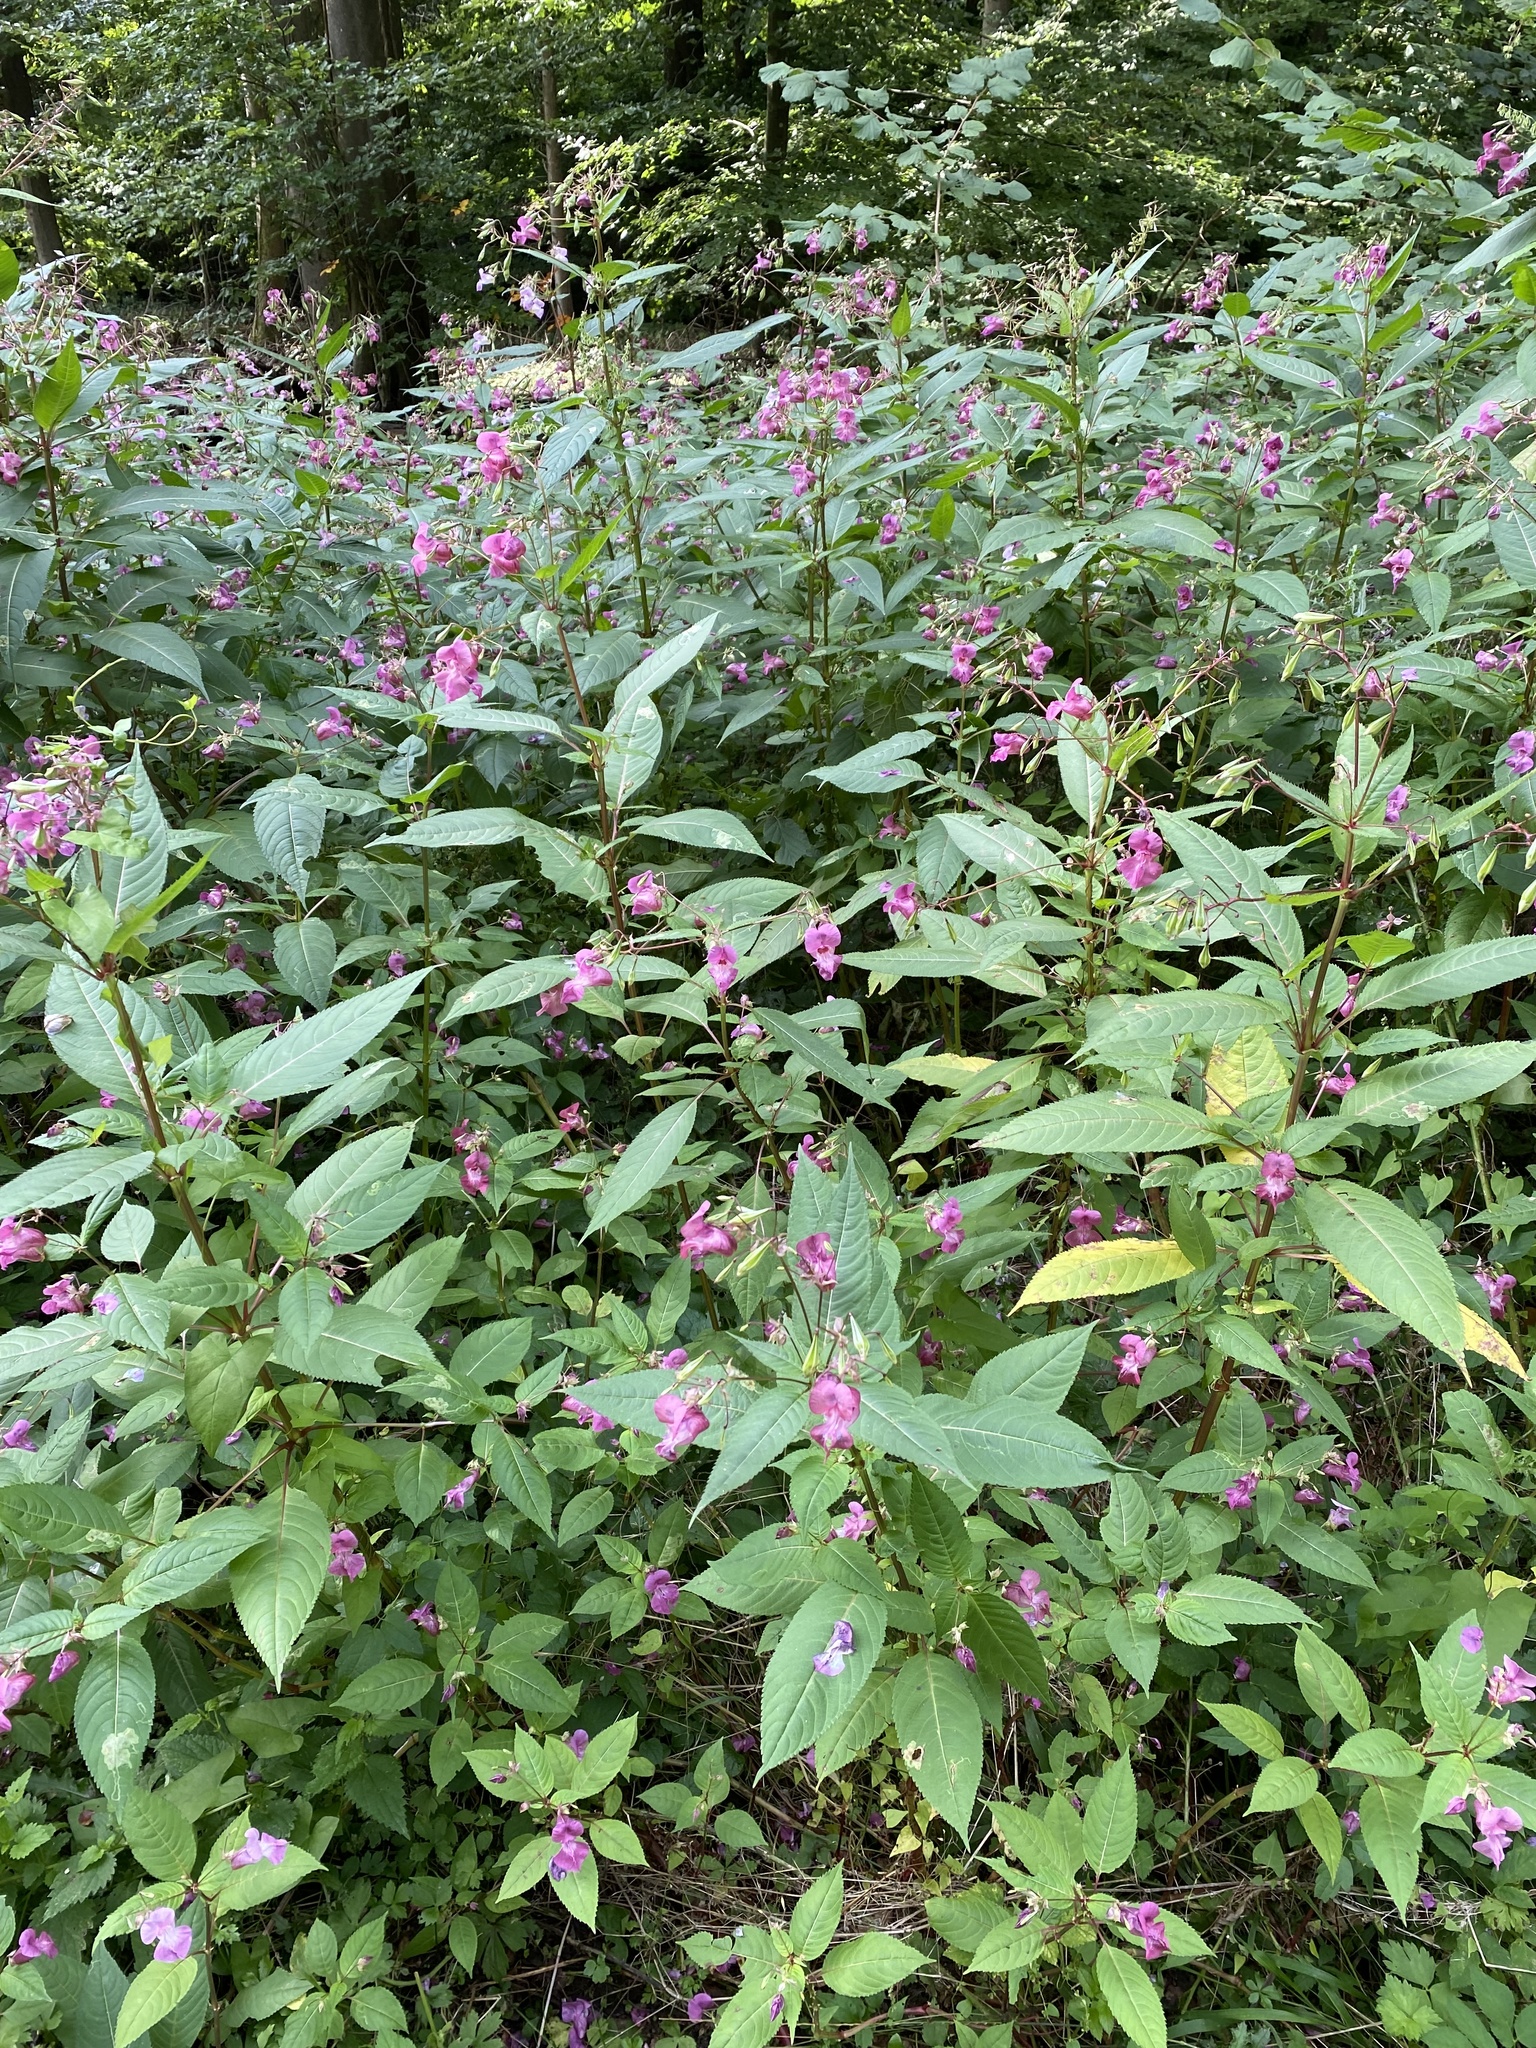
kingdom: Plantae
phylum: Tracheophyta
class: Magnoliopsida
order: Ericales
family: Balsaminaceae
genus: Impatiens
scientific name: Impatiens glandulifera
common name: Himalayan balsam
